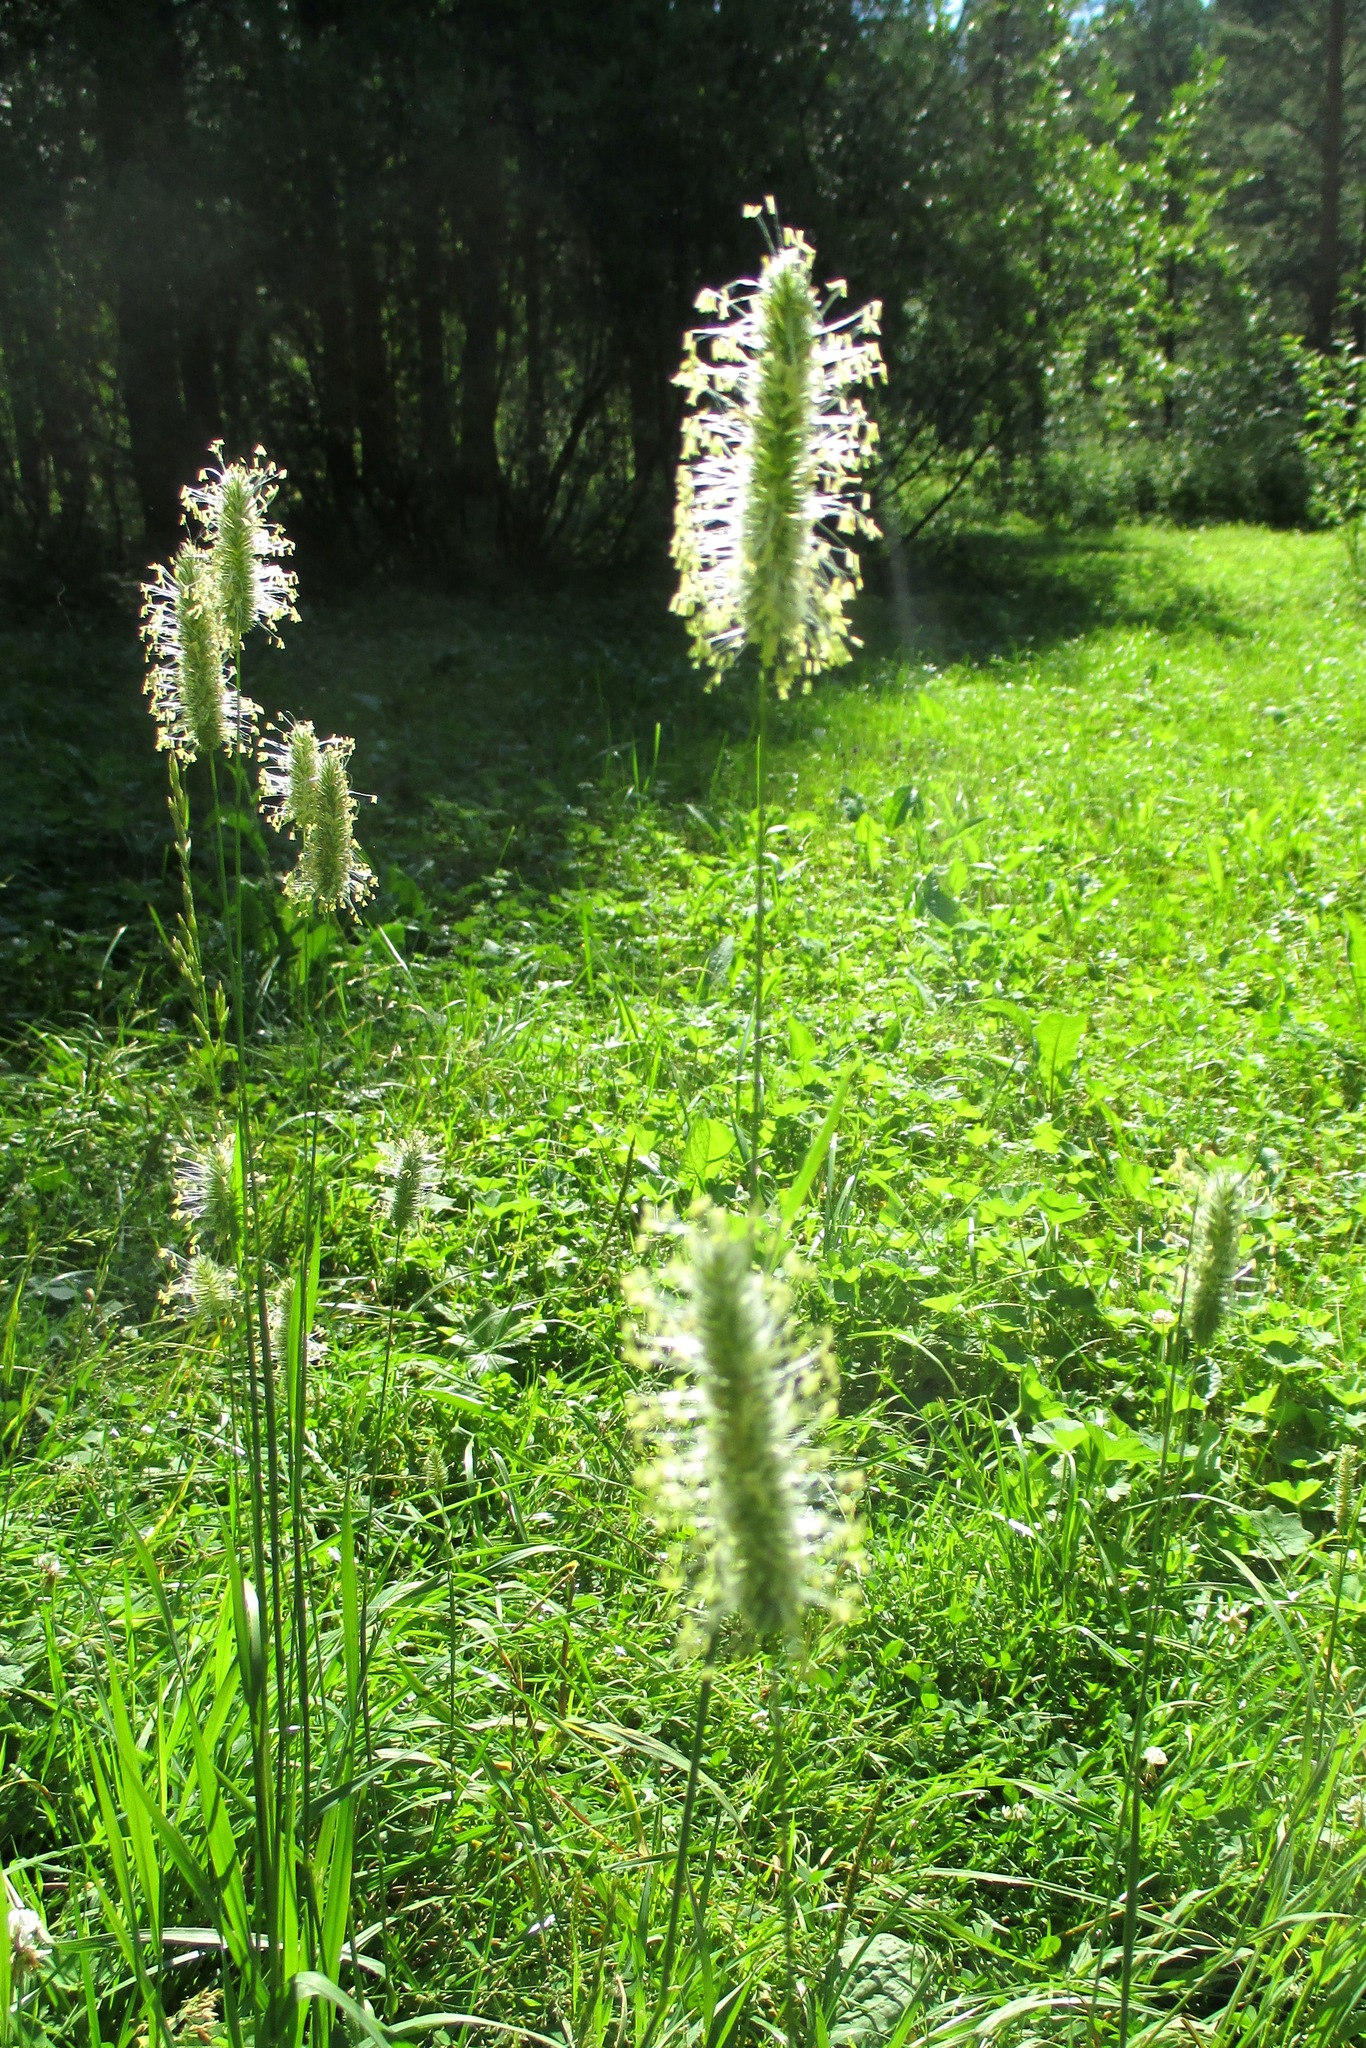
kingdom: Plantae
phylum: Tracheophyta
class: Liliopsida
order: Poales
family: Poaceae
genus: Phleum
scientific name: Phleum pratense
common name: Timothy grass
